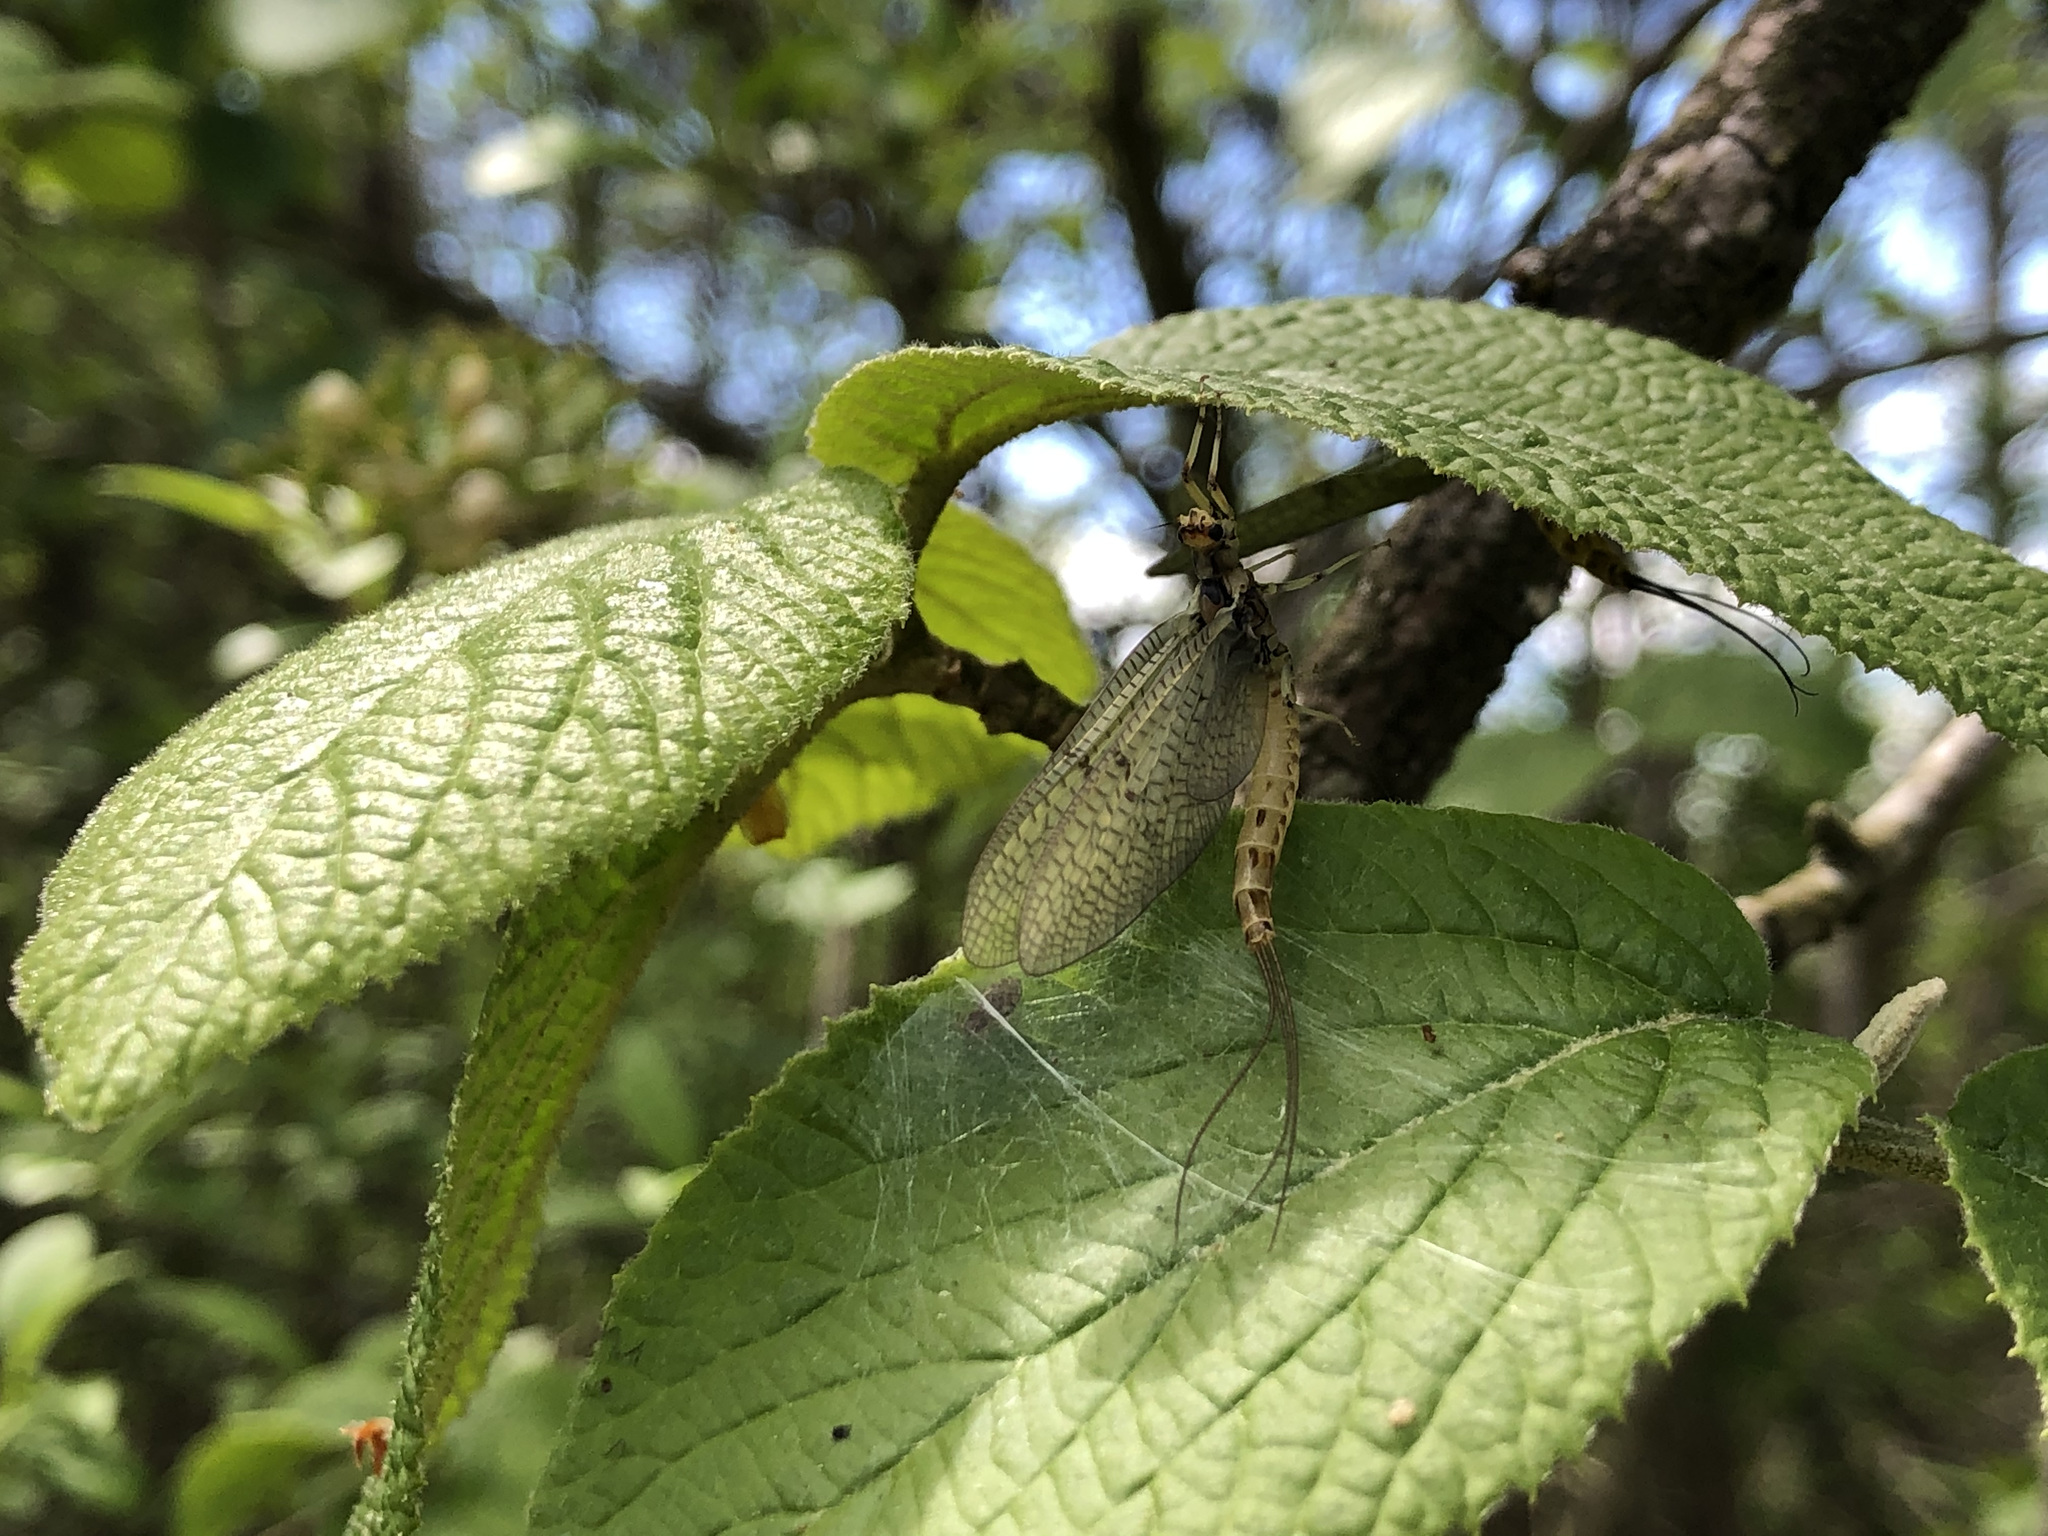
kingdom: Animalia
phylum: Arthropoda
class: Insecta
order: Ephemeroptera
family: Ephemeridae
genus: Ephemera
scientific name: Ephemera danica
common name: Green dun
